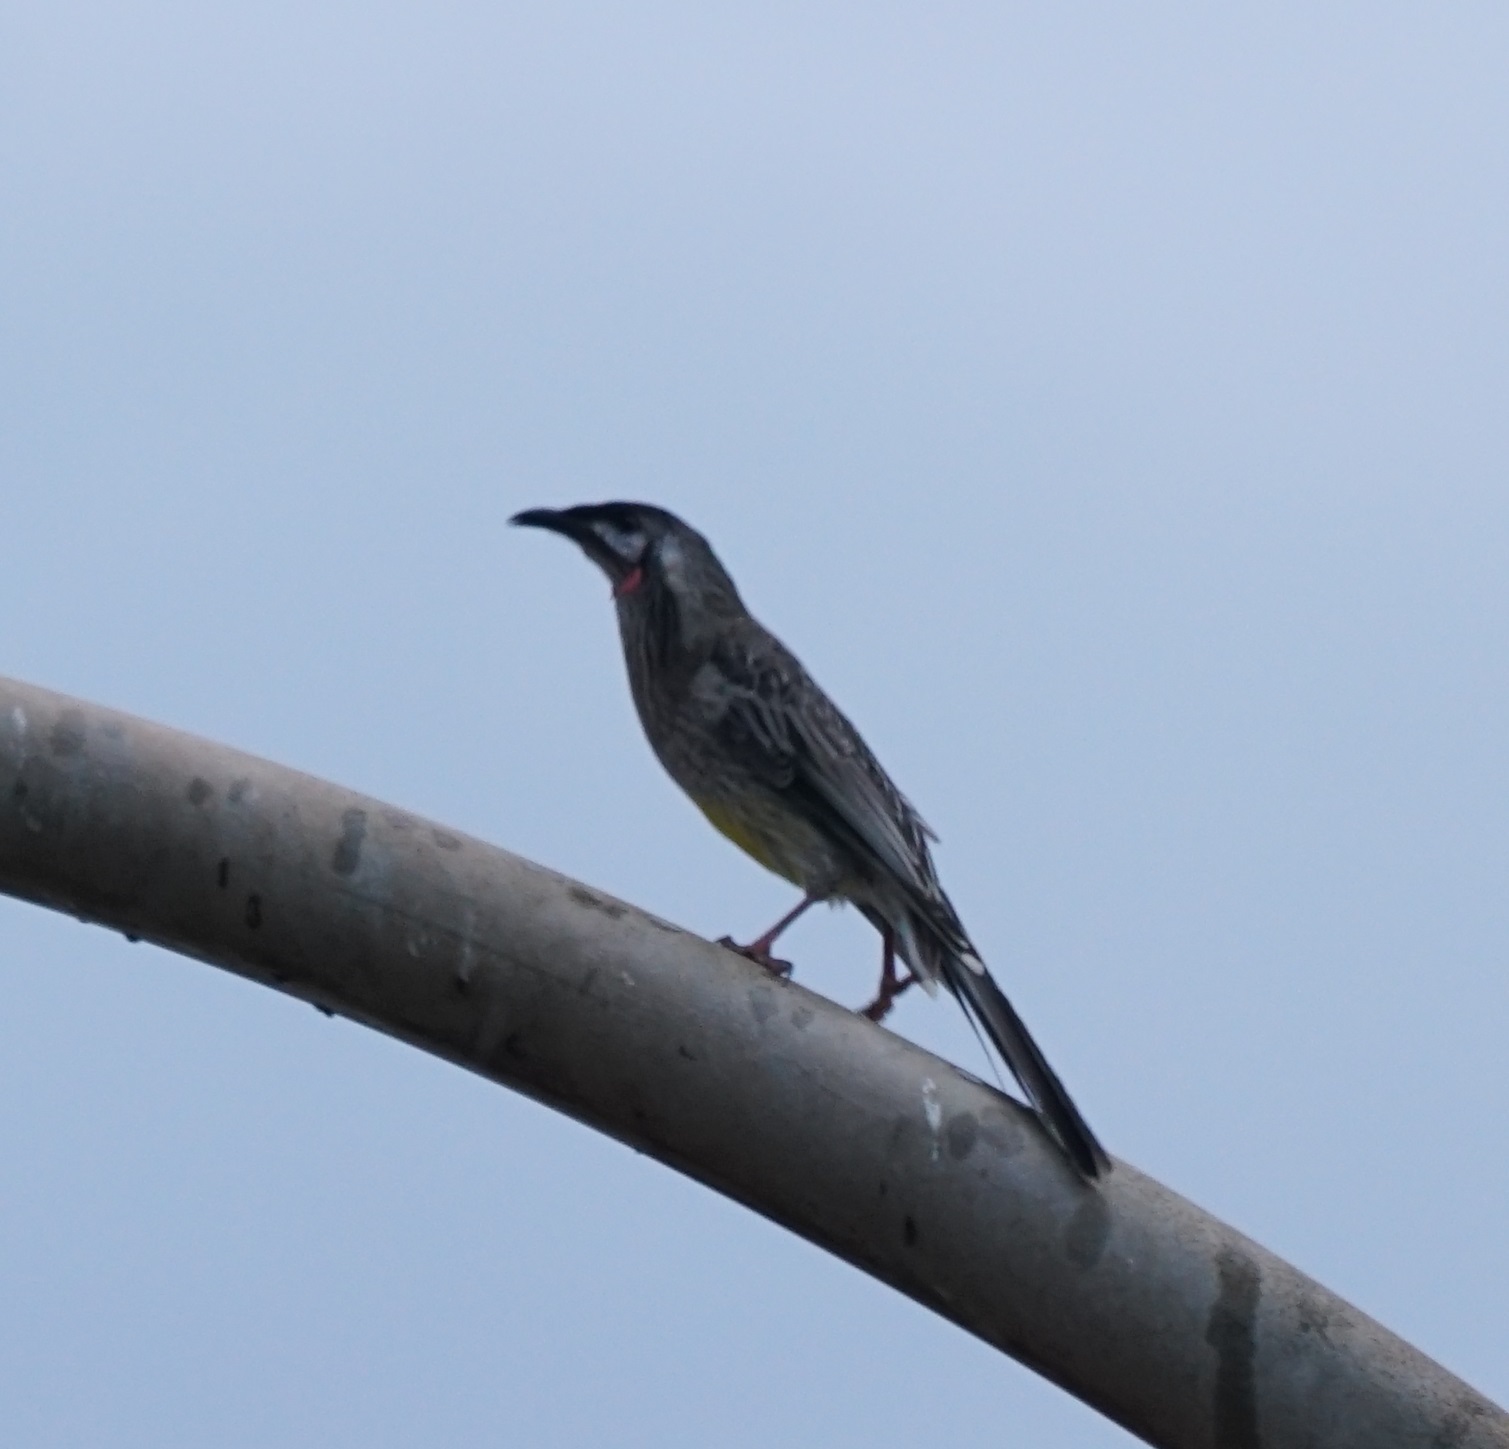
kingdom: Animalia
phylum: Chordata
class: Aves
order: Passeriformes
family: Meliphagidae
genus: Anthochaera
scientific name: Anthochaera carunculata
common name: Red wattlebird
